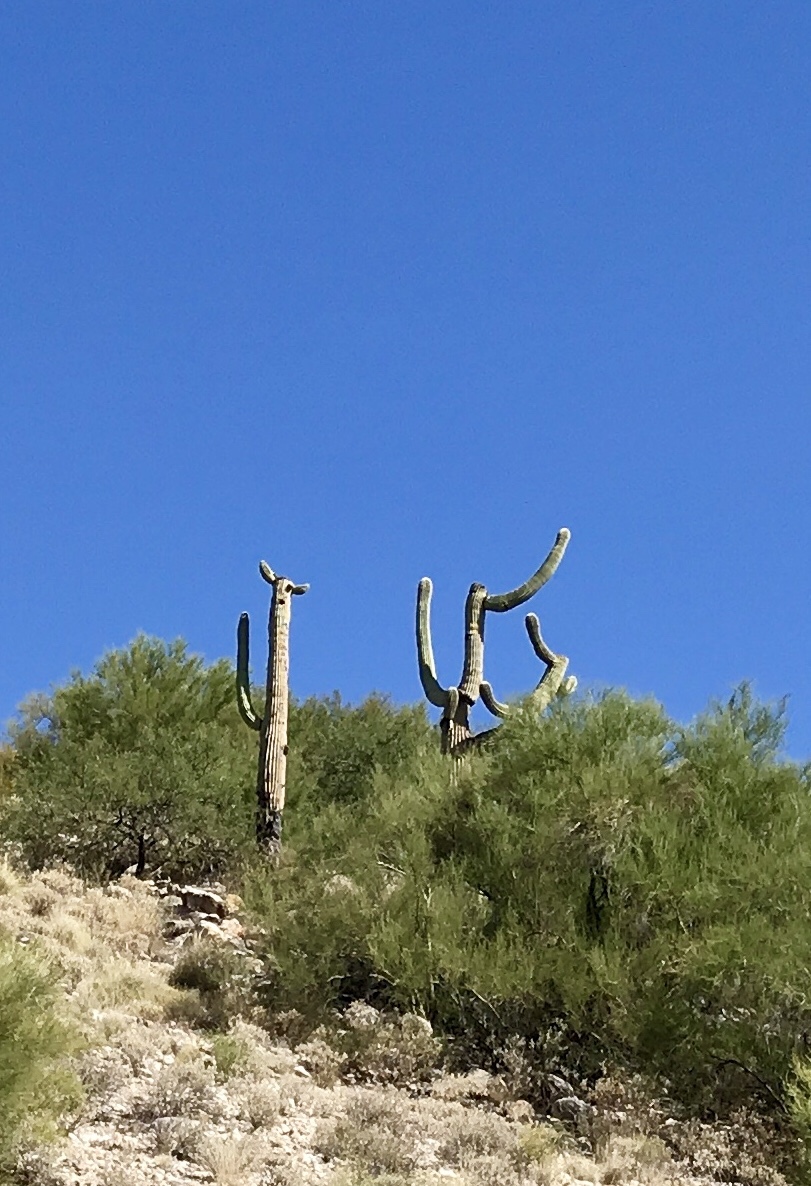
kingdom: Plantae
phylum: Tracheophyta
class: Magnoliopsida
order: Caryophyllales
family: Cactaceae
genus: Carnegiea
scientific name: Carnegiea gigantea
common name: Saguaro
